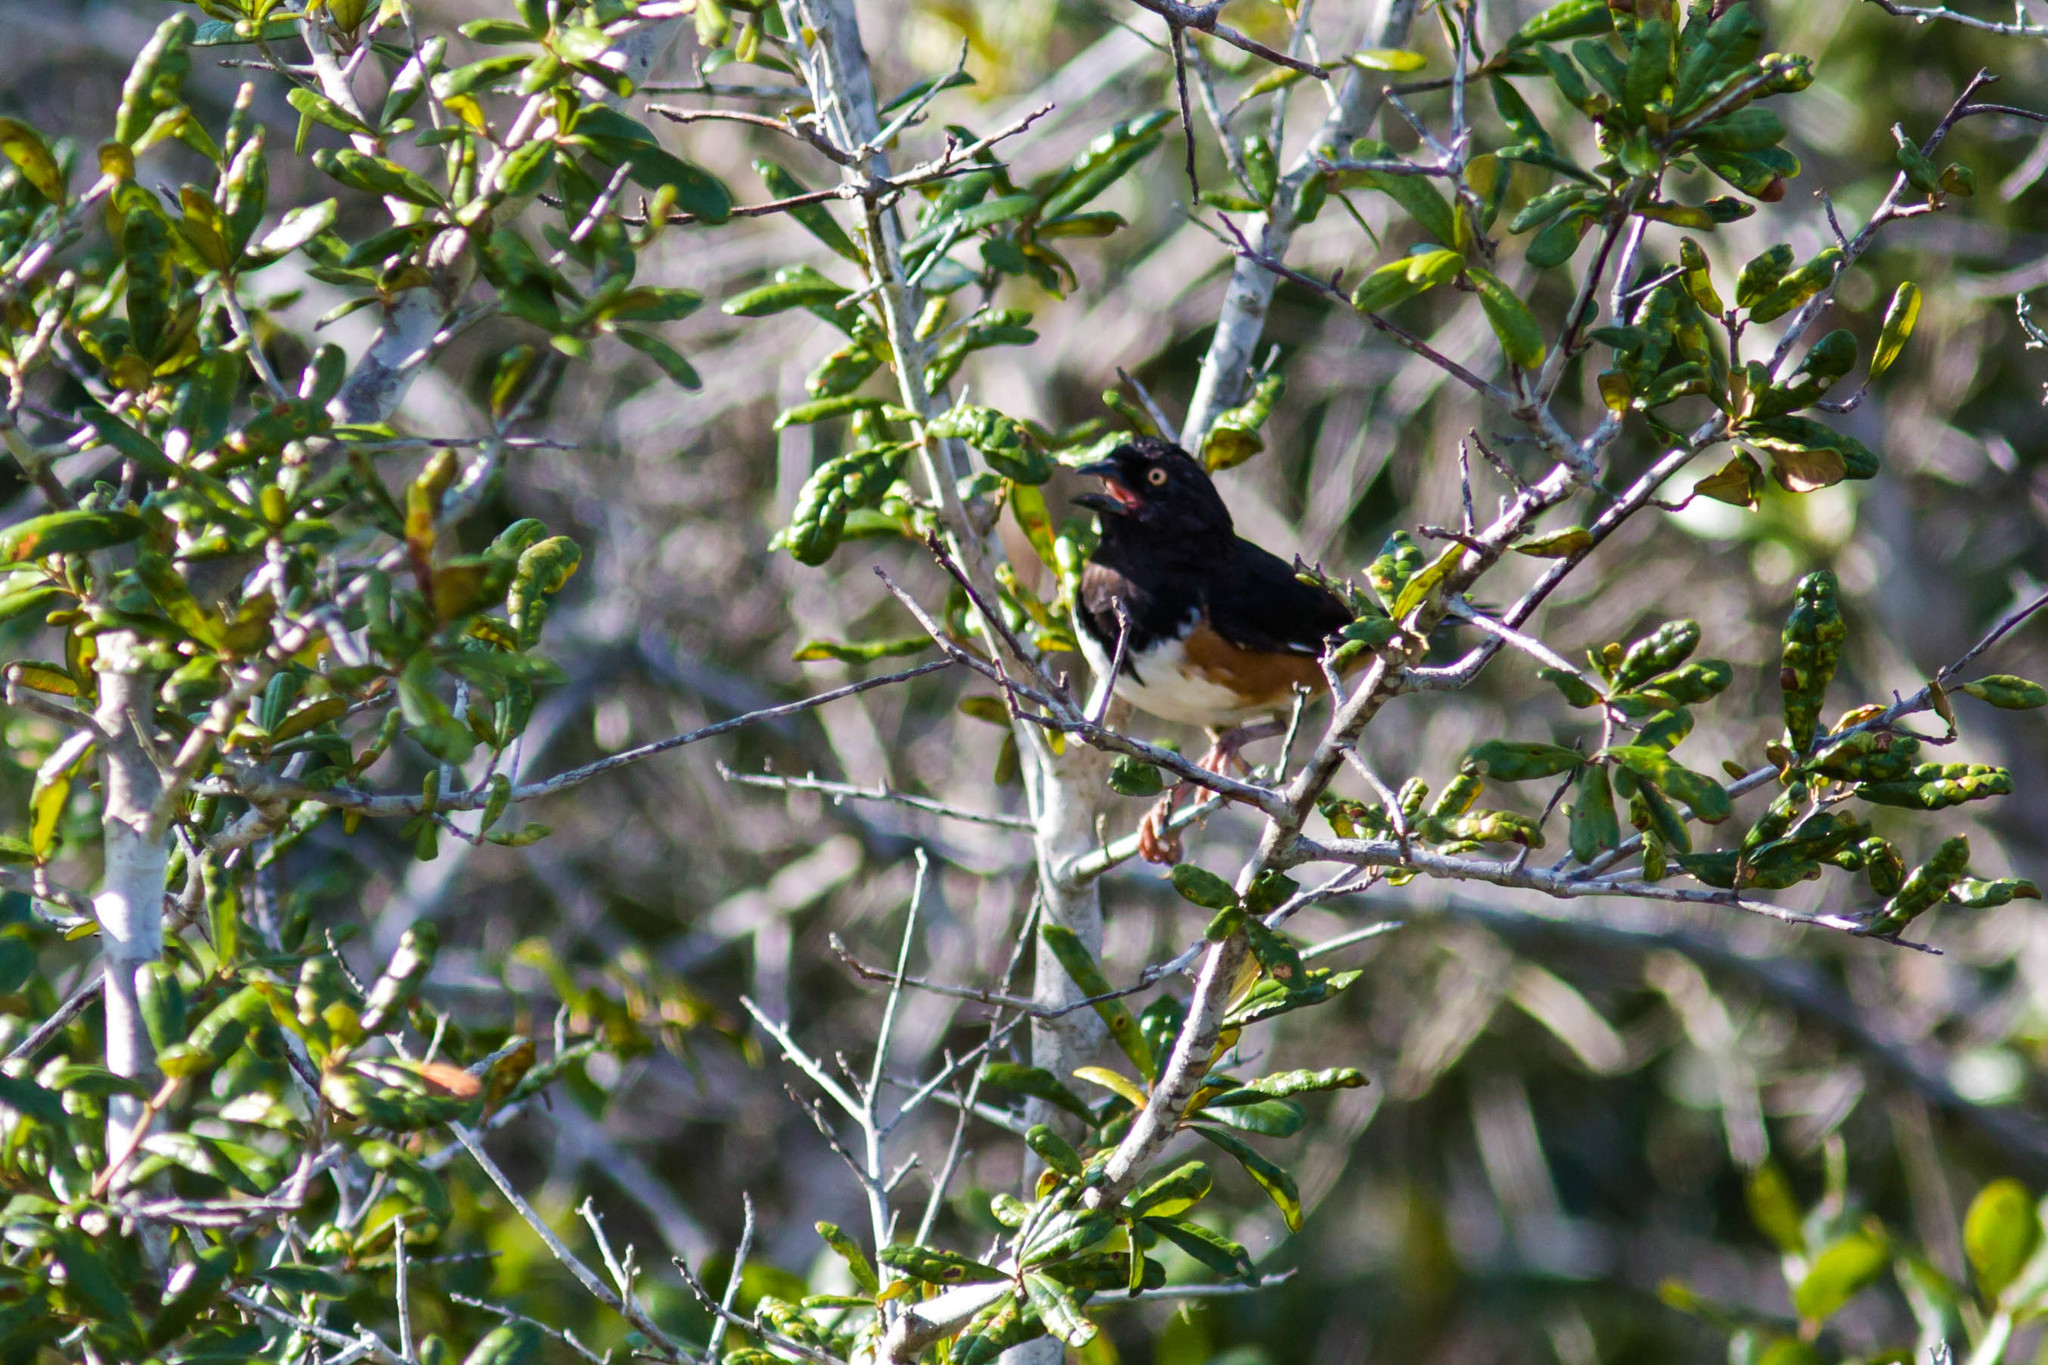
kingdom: Animalia
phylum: Chordata
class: Aves
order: Passeriformes
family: Passerellidae
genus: Pipilo
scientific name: Pipilo erythrophthalmus
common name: Eastern towhee
